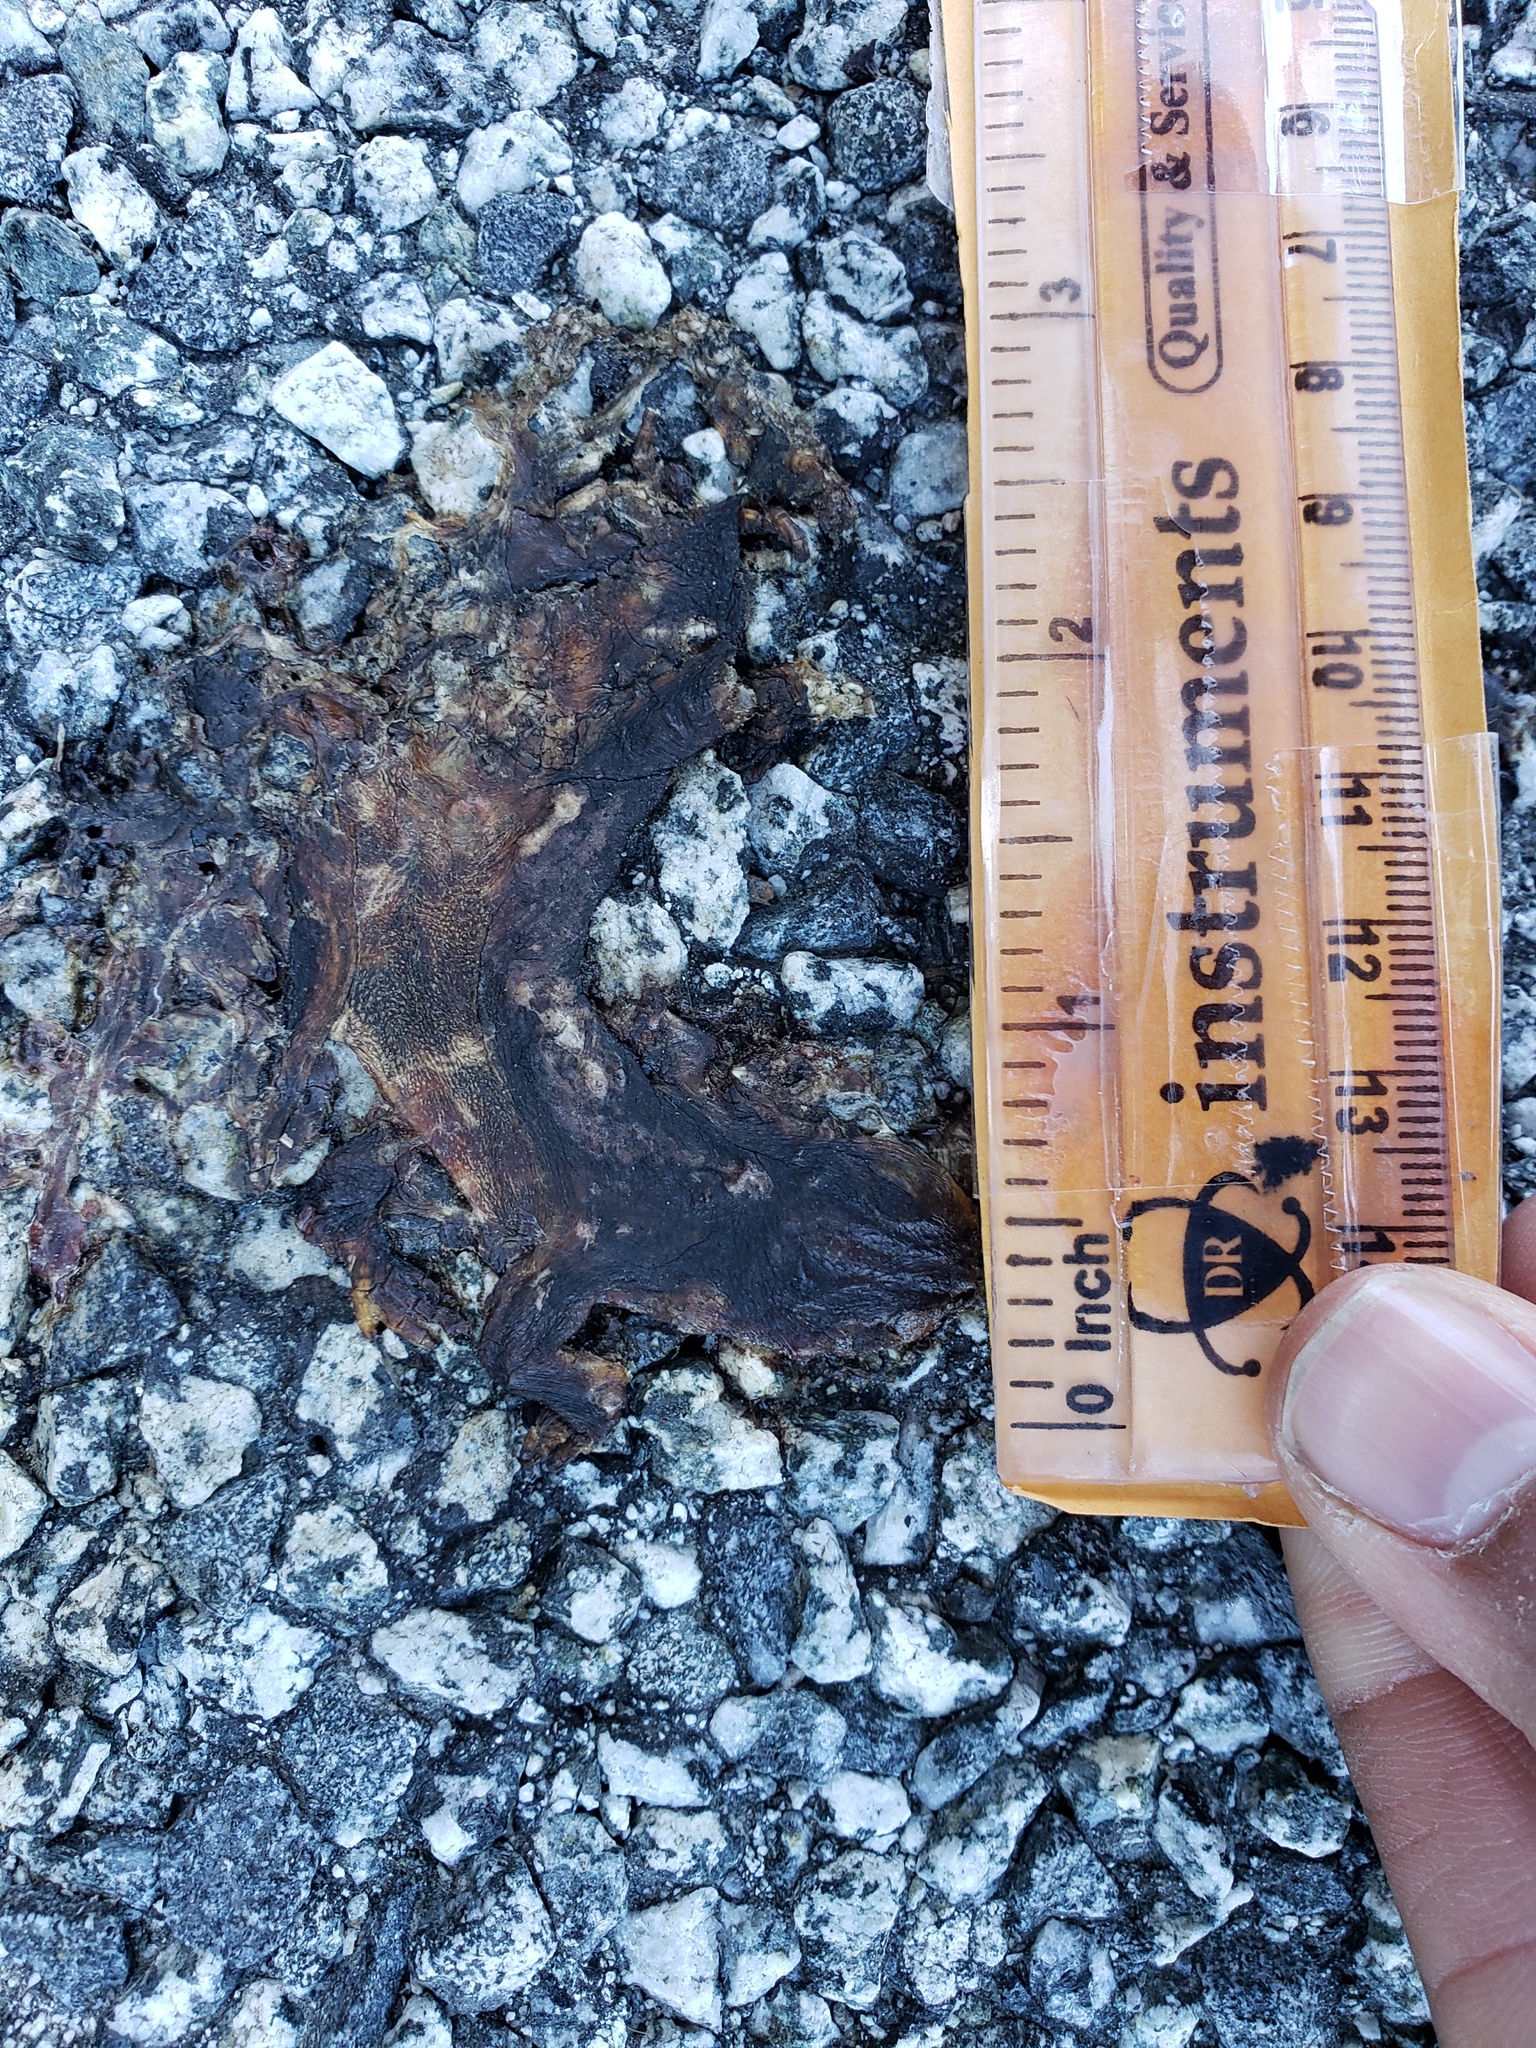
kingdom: Animalia
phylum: Chordata
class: Amphibia
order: Caudata
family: Salamandridae
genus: Taricha
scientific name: Taricha
